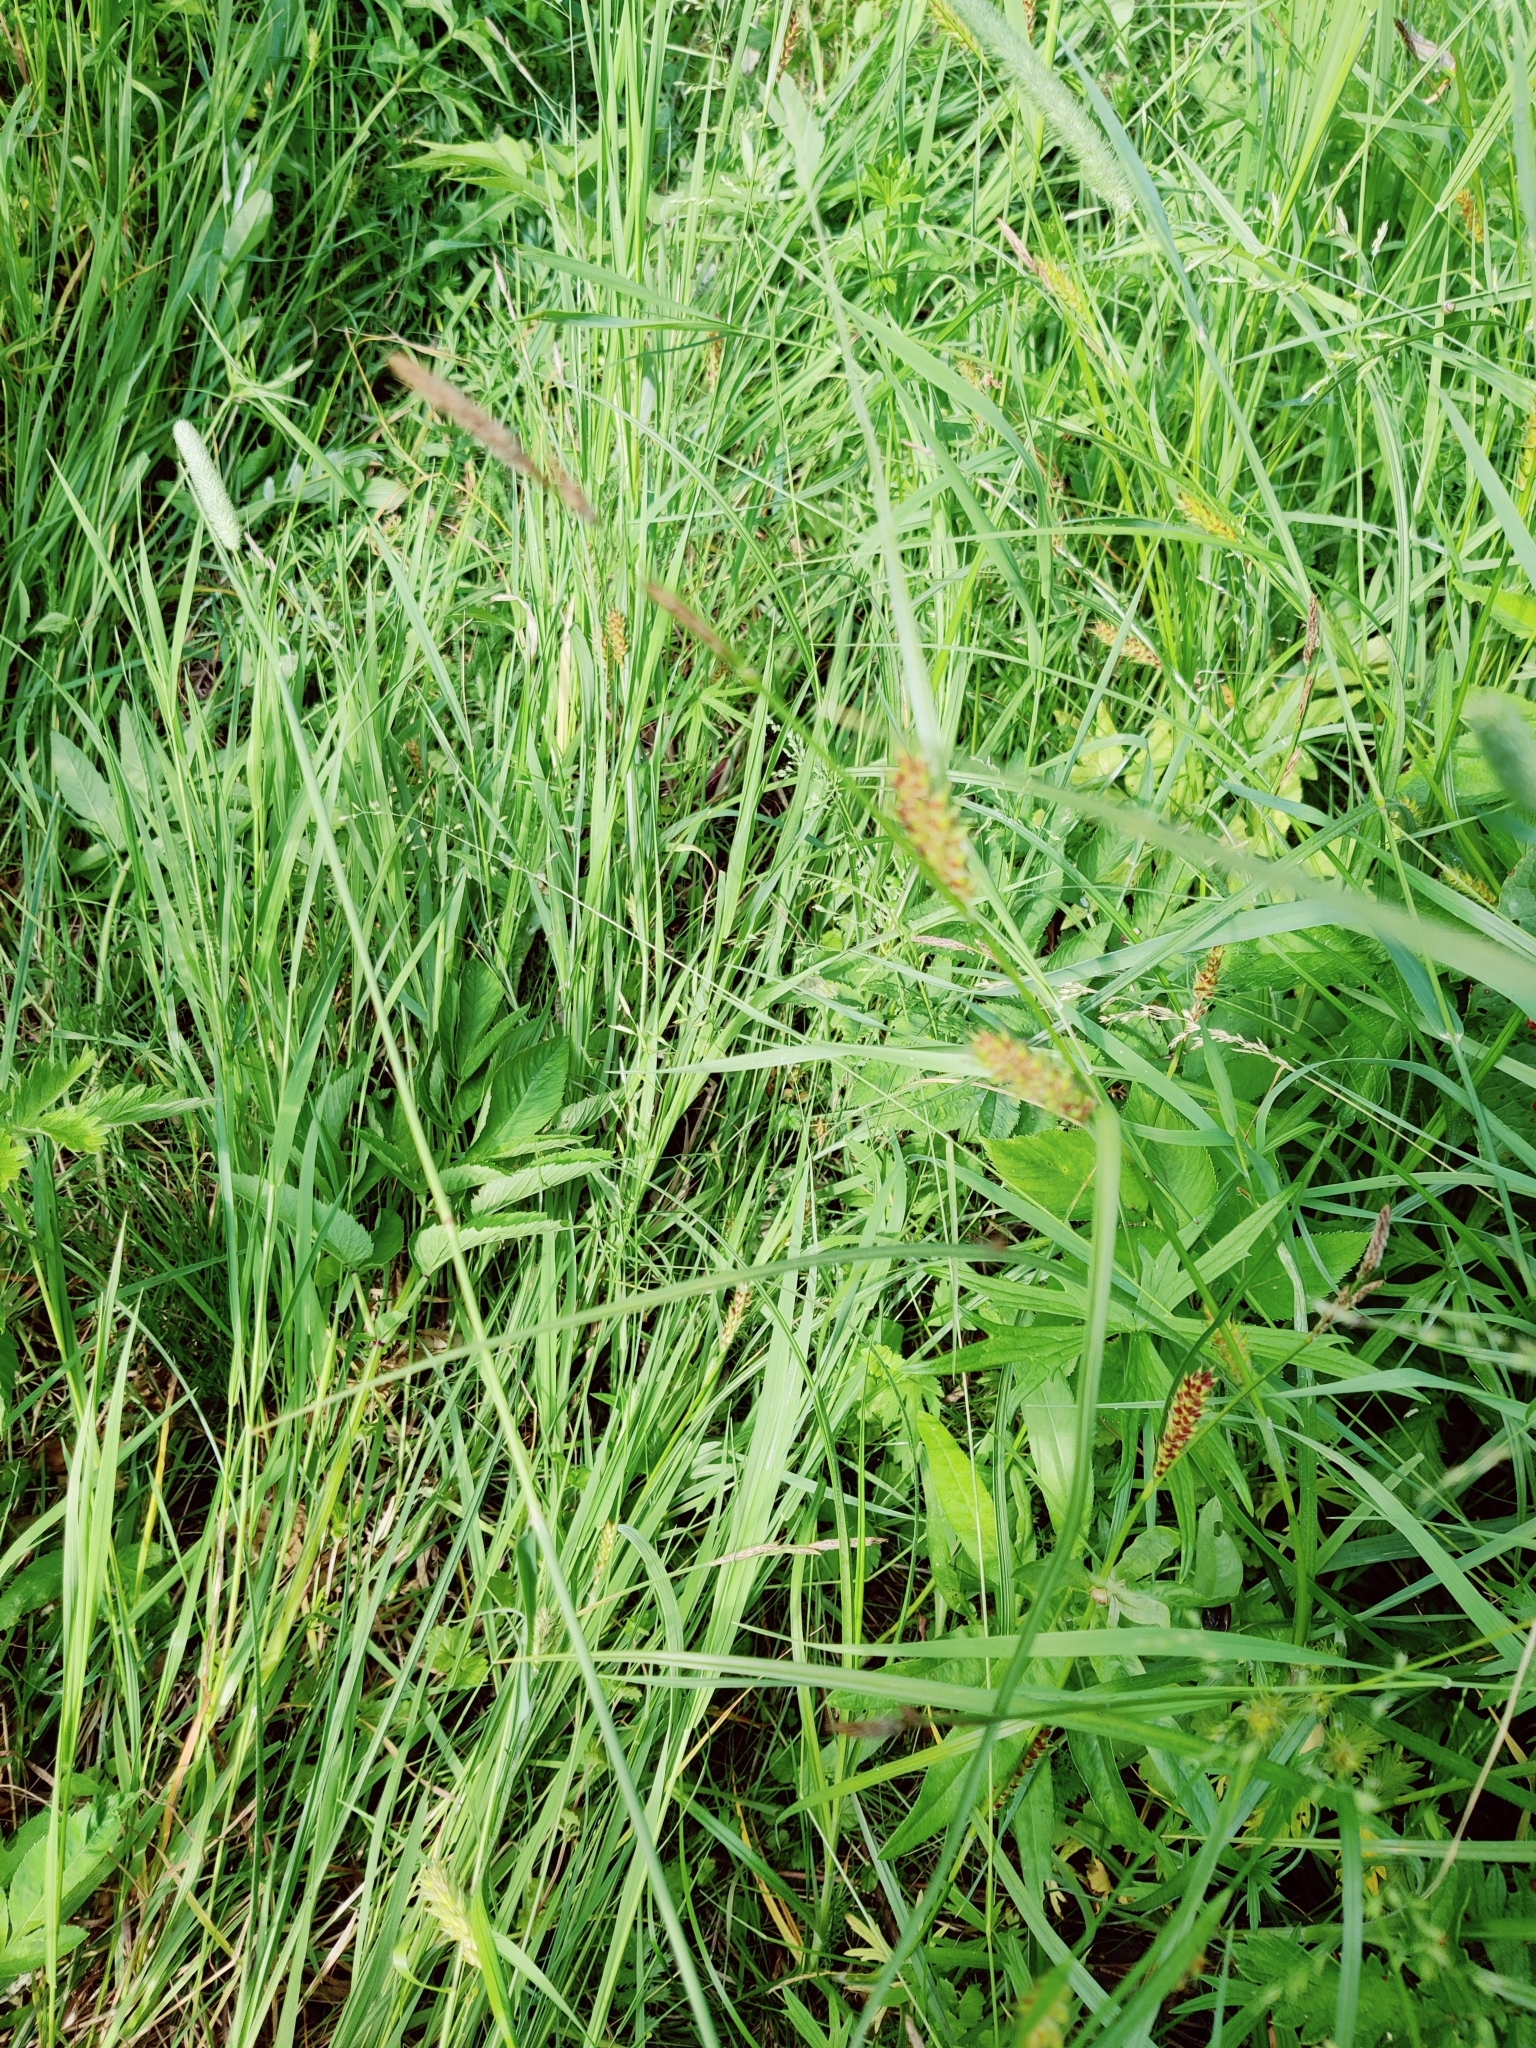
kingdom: Plantae
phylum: Tracheophyta
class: Liliopsida
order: Poales
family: Cyperaceae
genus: Carex
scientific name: Carex hirta
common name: Hairy sedge
